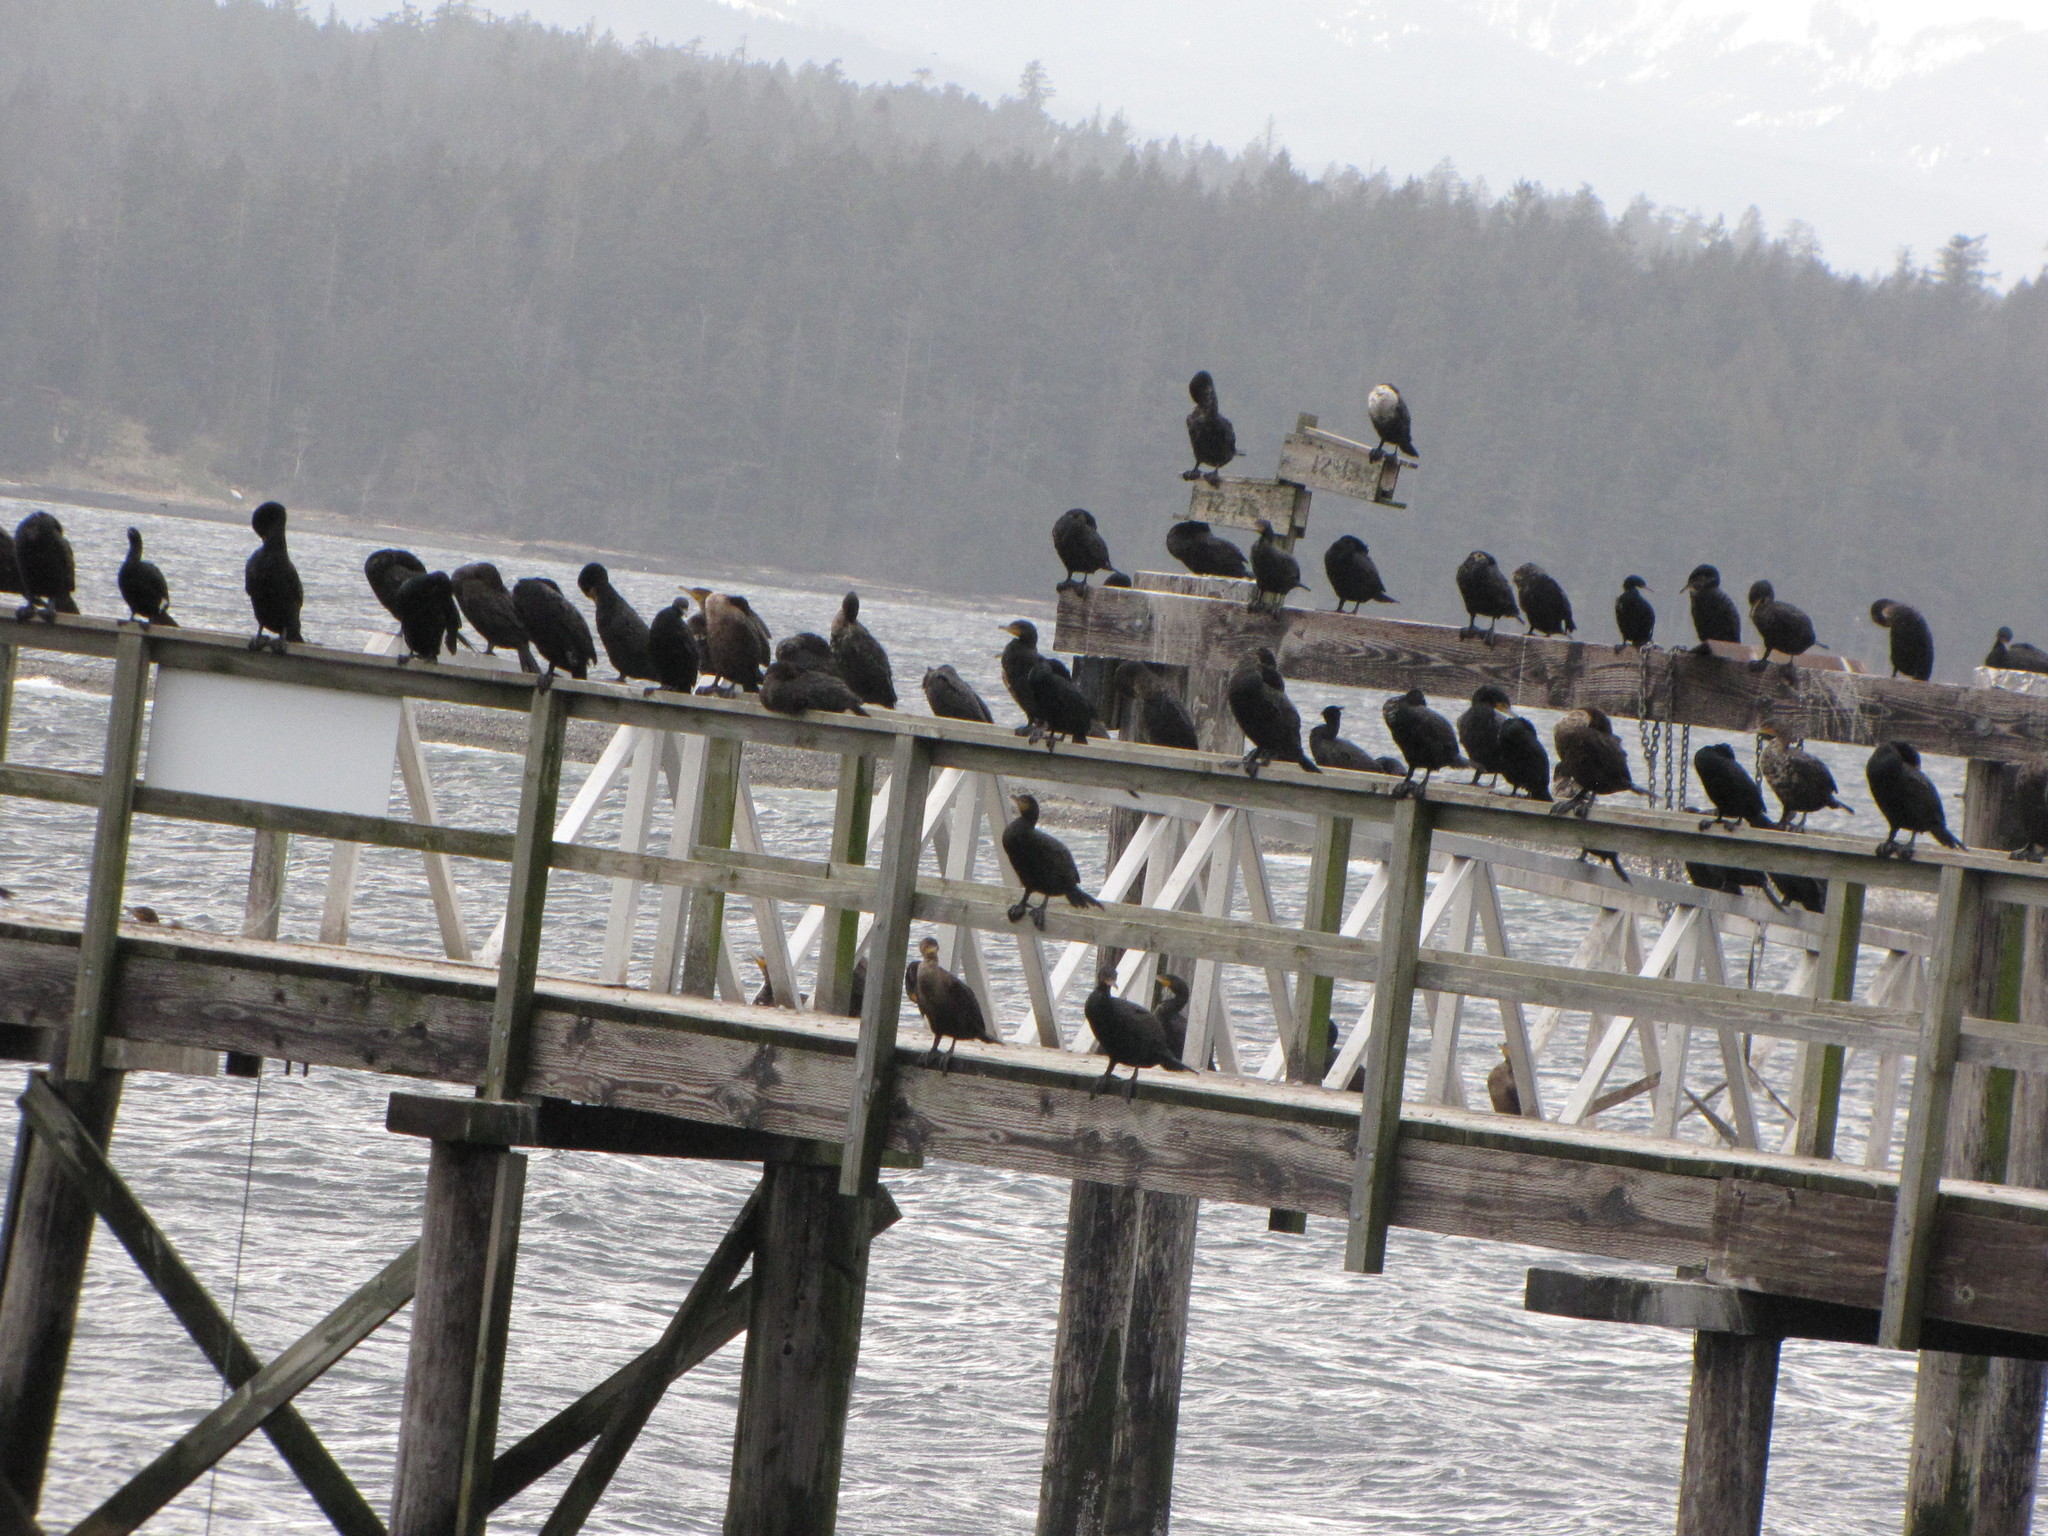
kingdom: Animalia
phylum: Chordata
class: Aves
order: Suliformes
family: Phalacrocoracidae
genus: Phalacrocorax
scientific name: Phalacrocorax auritus
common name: Double-crested cormorant
